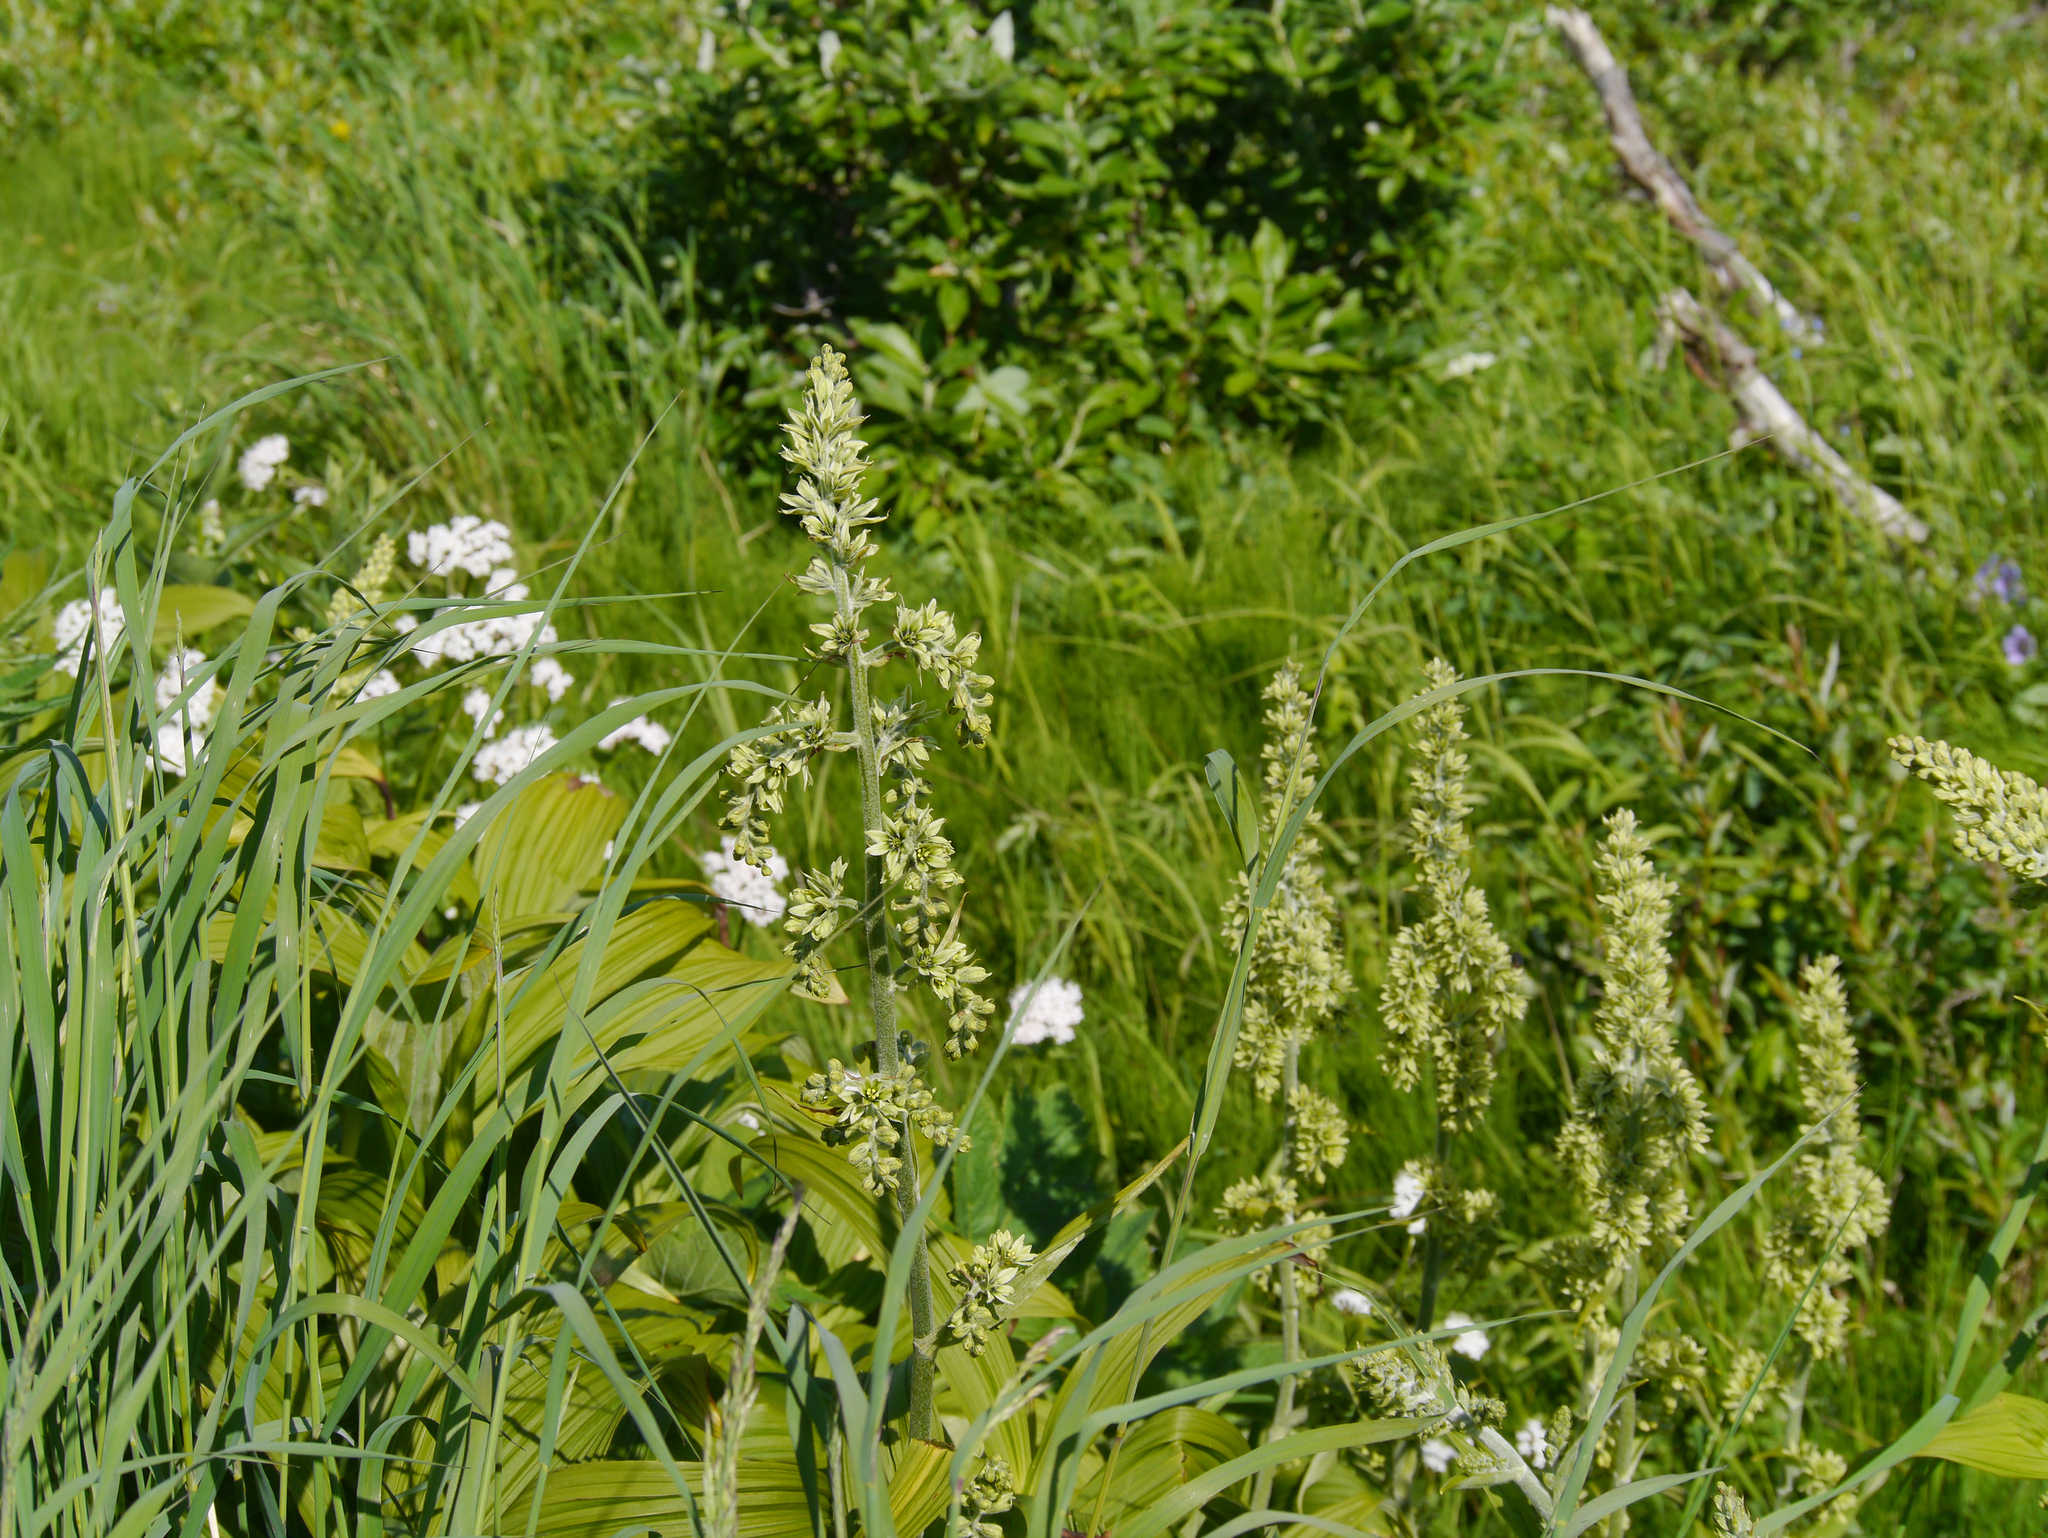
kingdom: Plantae
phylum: Tracheophyta
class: Liliopsida
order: Liliales
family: Melanthiaceae
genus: Veratrum
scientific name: Veratrum viride
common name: American false hellebore
